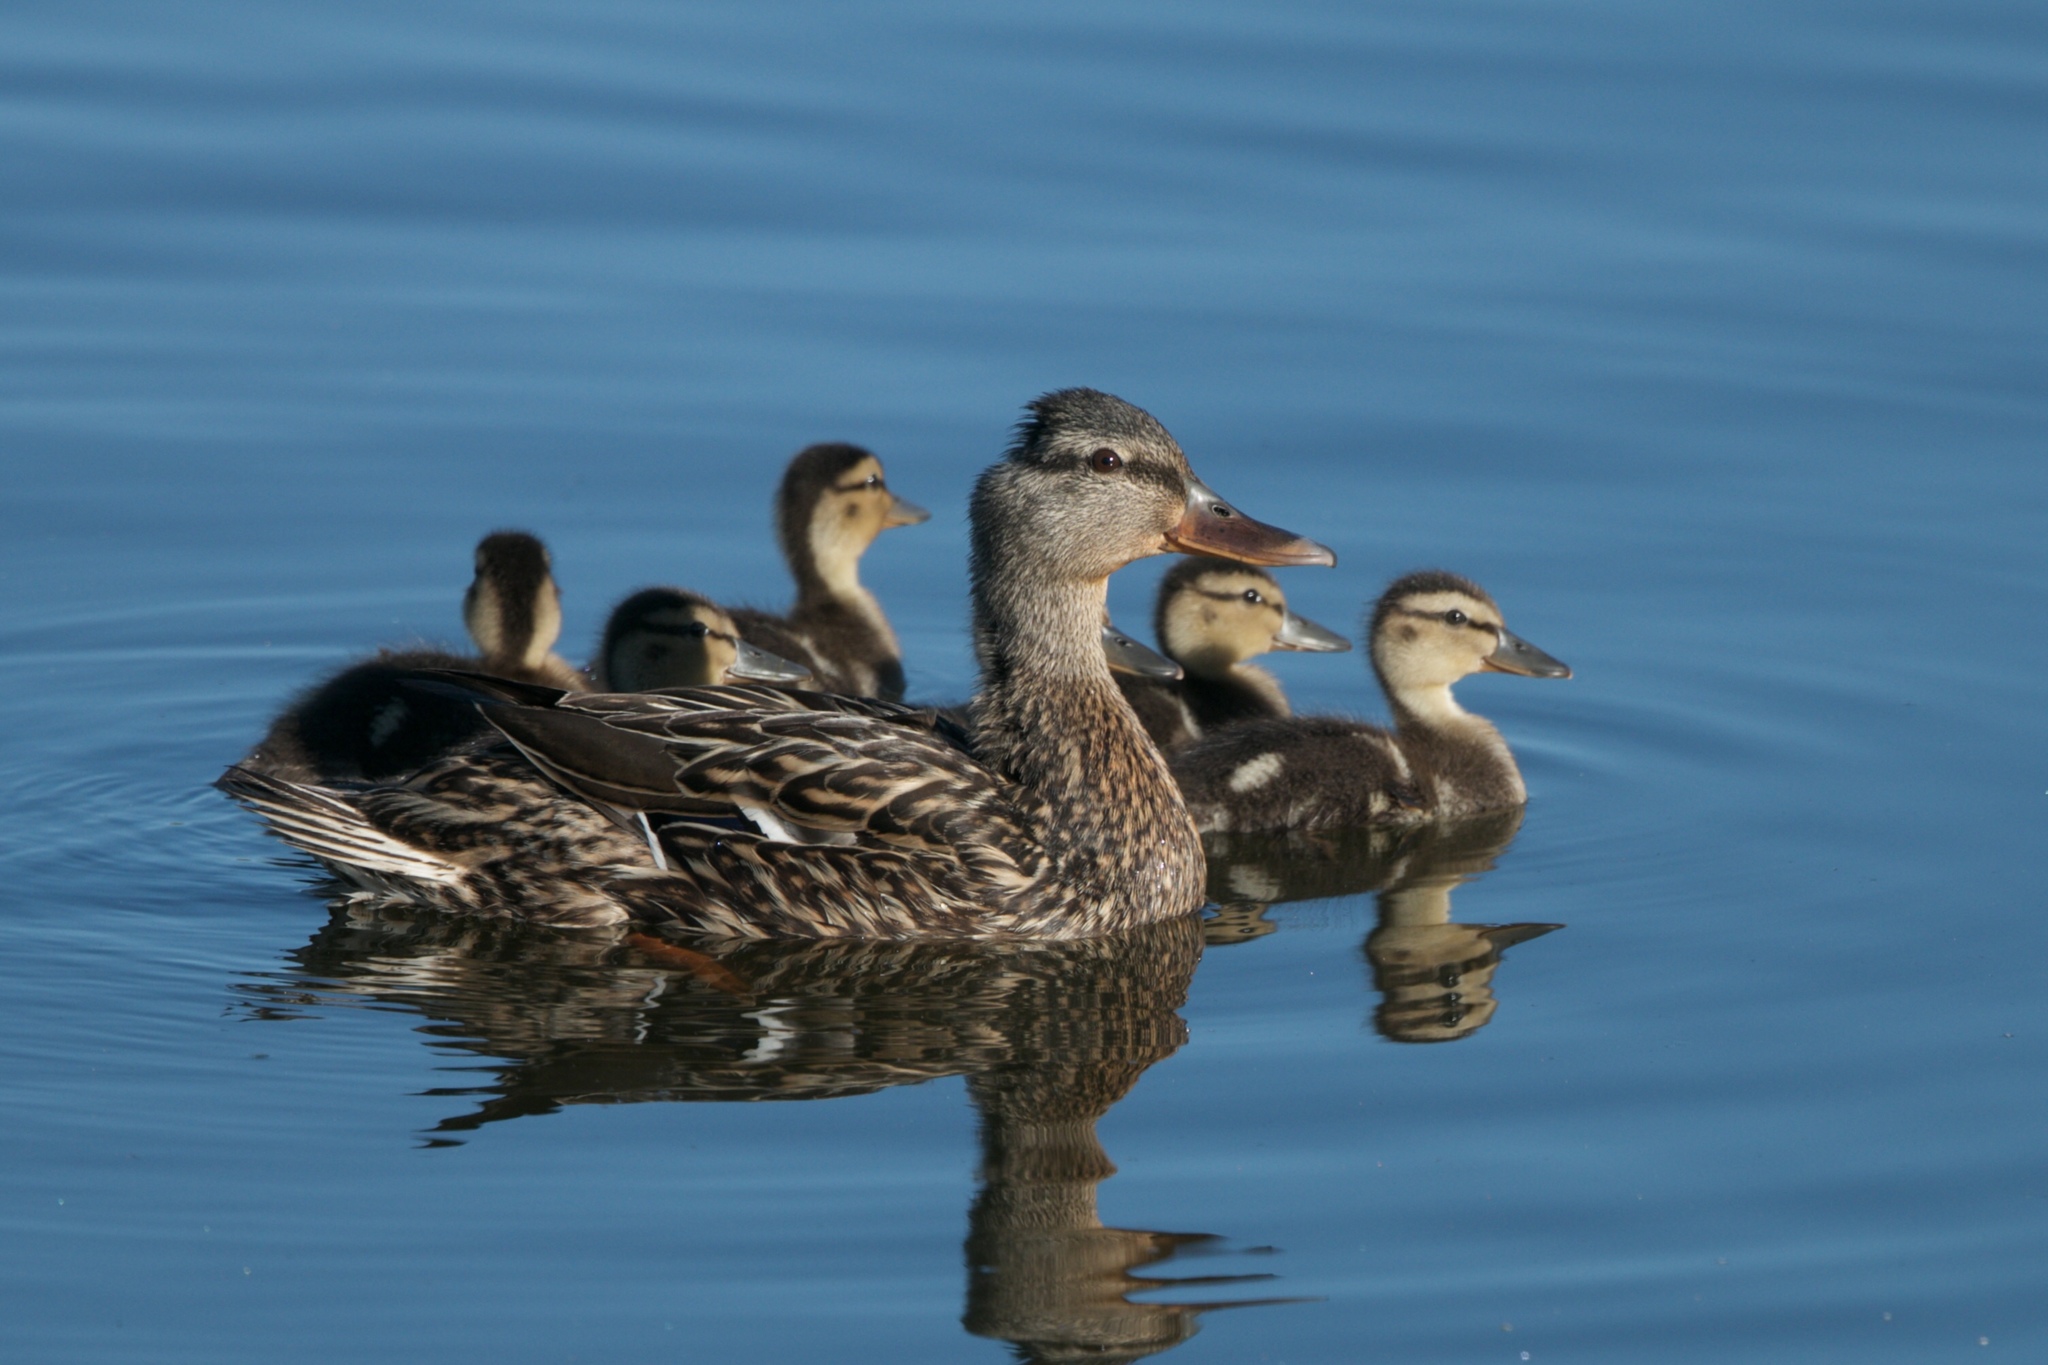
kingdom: Animalia
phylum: Chordata
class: Aves
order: Anseriformes
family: Anatidae
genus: Anas
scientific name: Anas platyrhynchos
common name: Mallard
